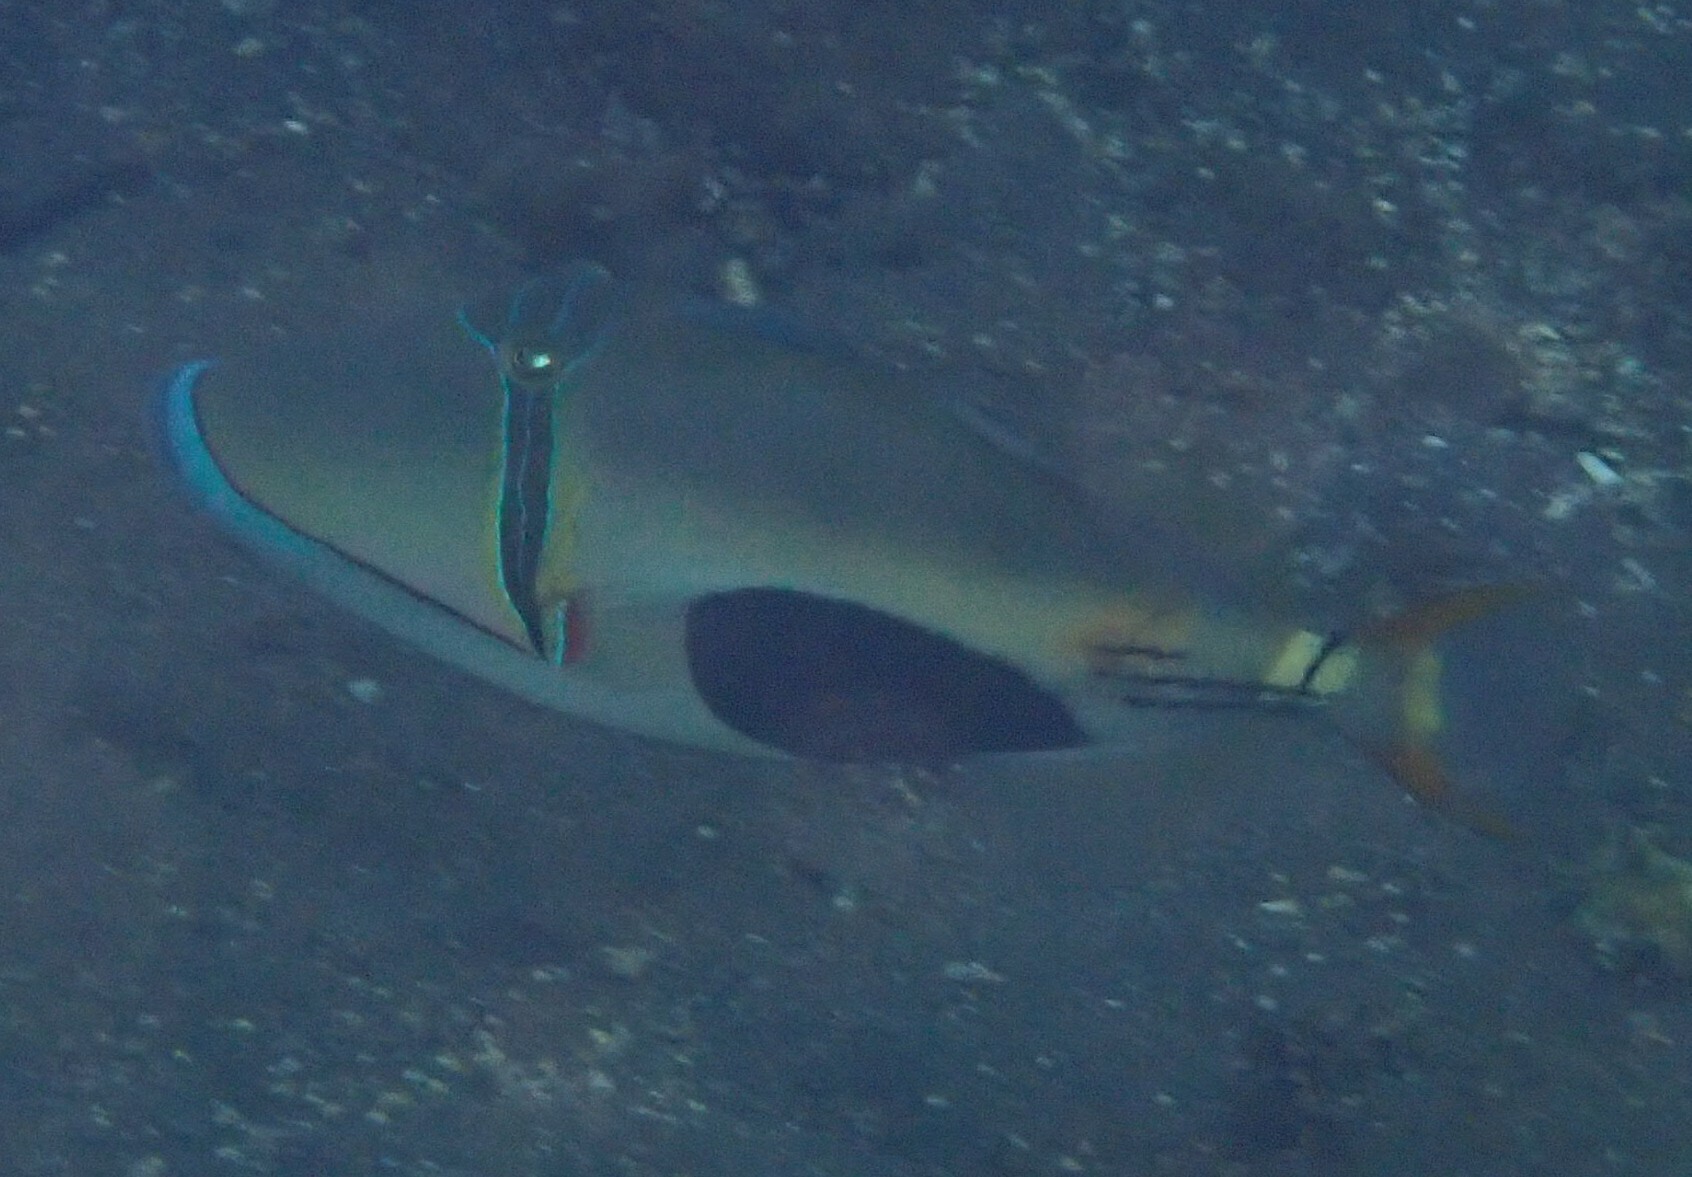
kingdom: Animalia
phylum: Chordata
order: Tetraodontiformes
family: Balistidae
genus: Rhinecanthus
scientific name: Rhinecanthus verrucosus
